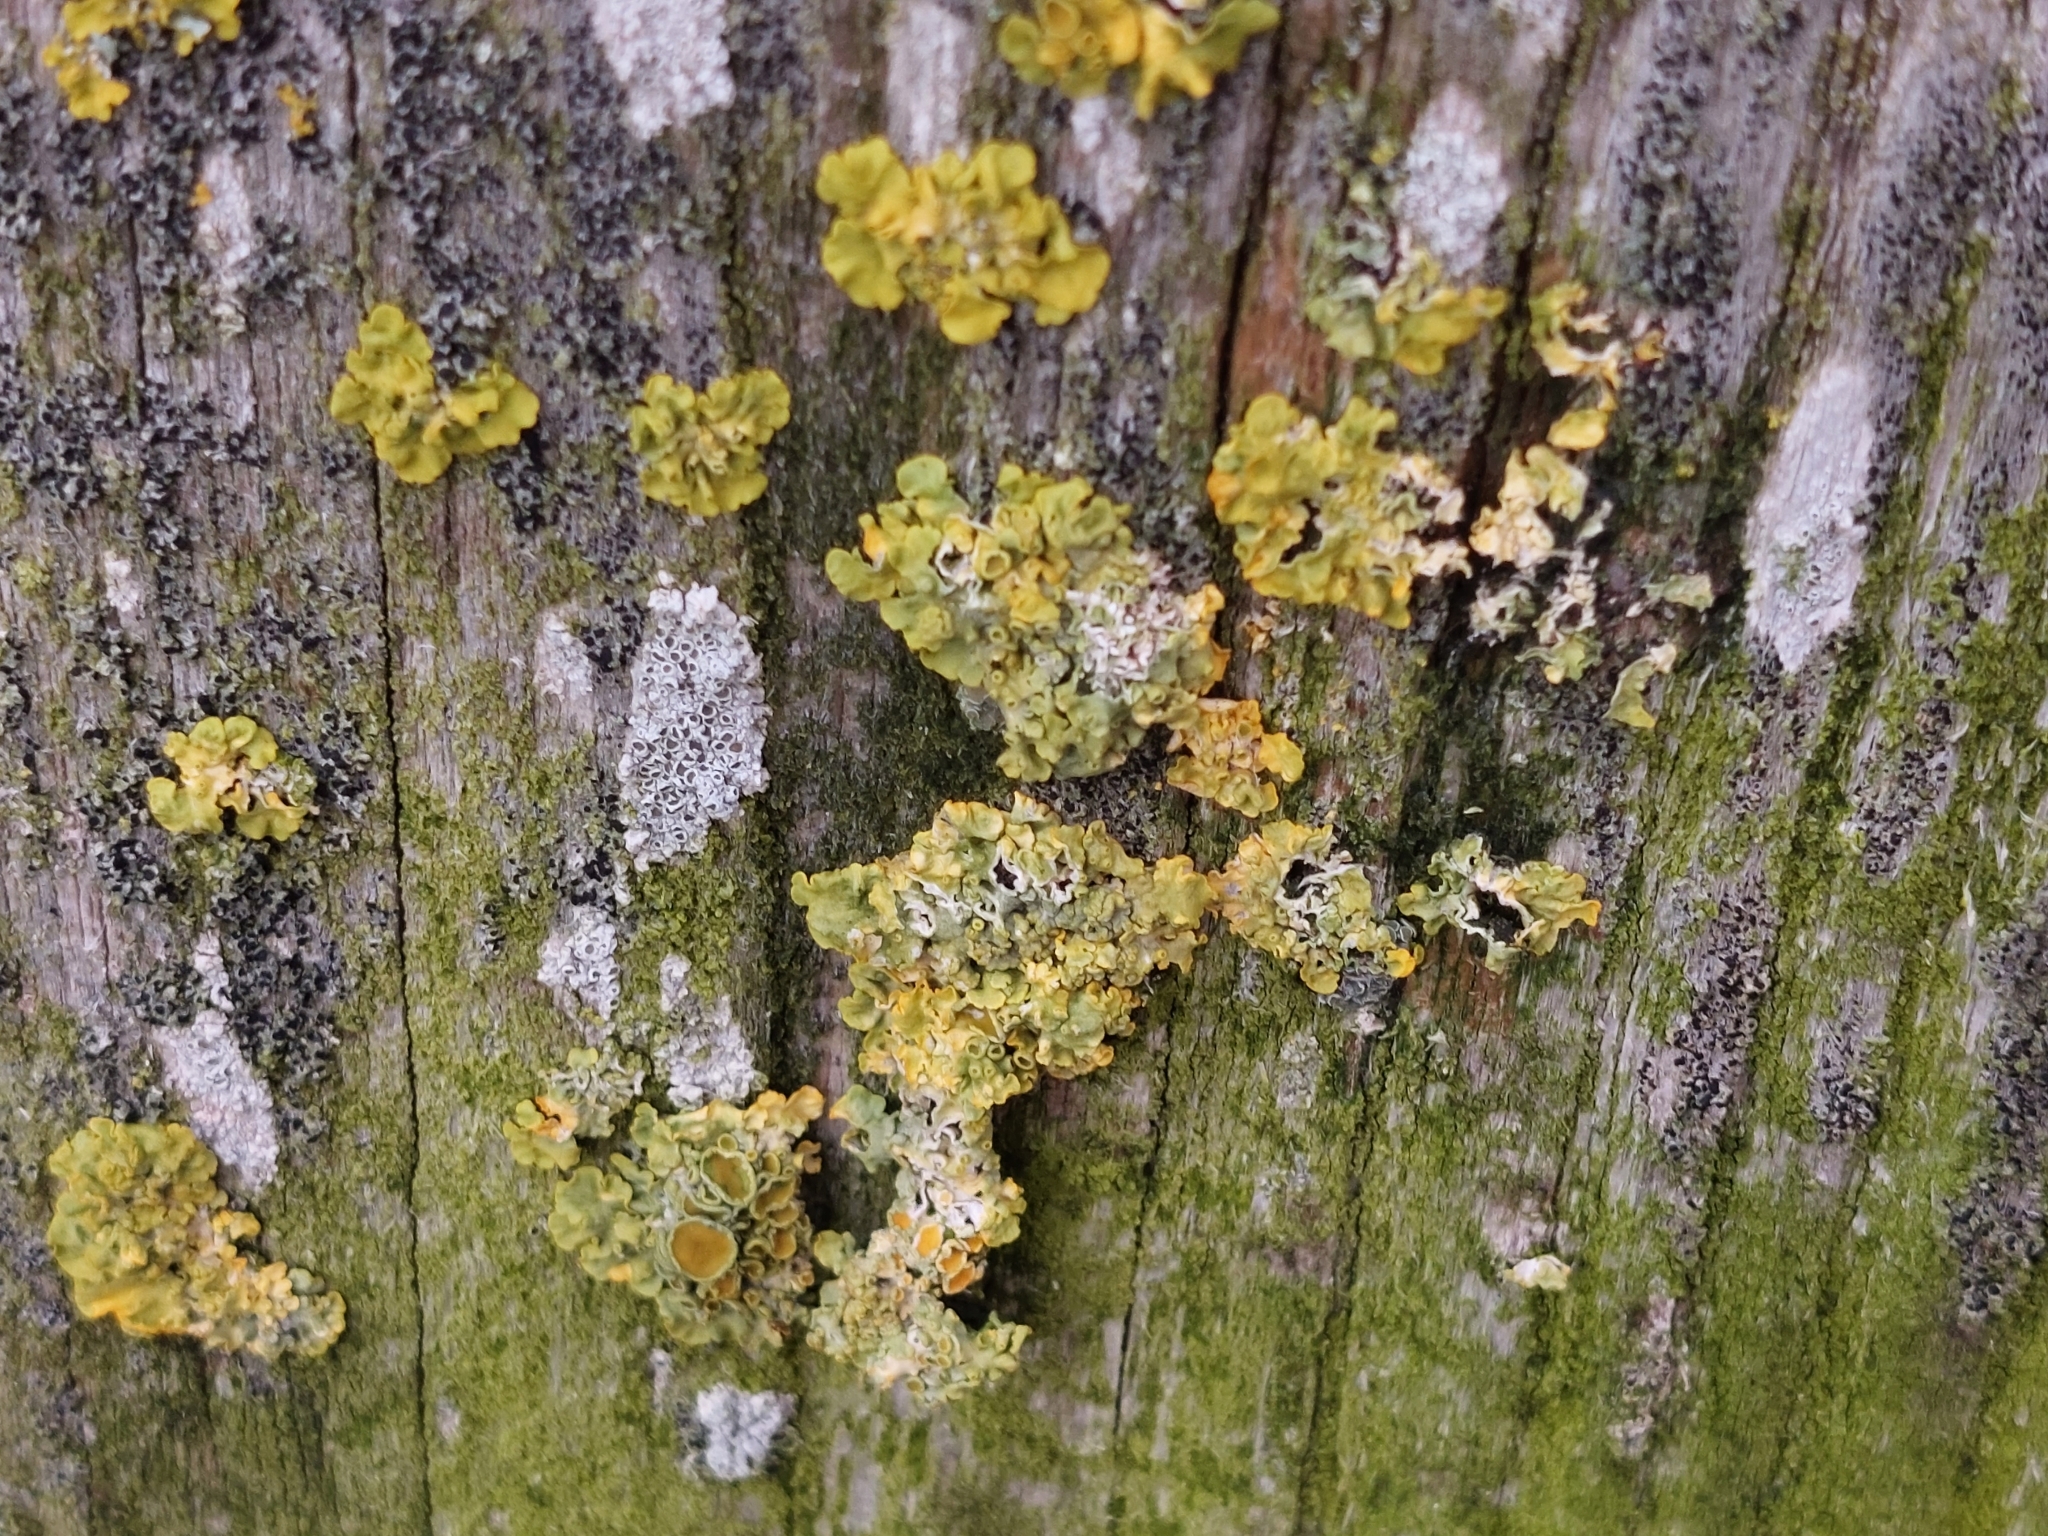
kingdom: Fungi
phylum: Ascomycota
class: Lecanoromycetes
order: Teloschistales
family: Teloschistaceae
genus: Xanthoria
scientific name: Xanthoria parietina
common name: Common orange lichen
